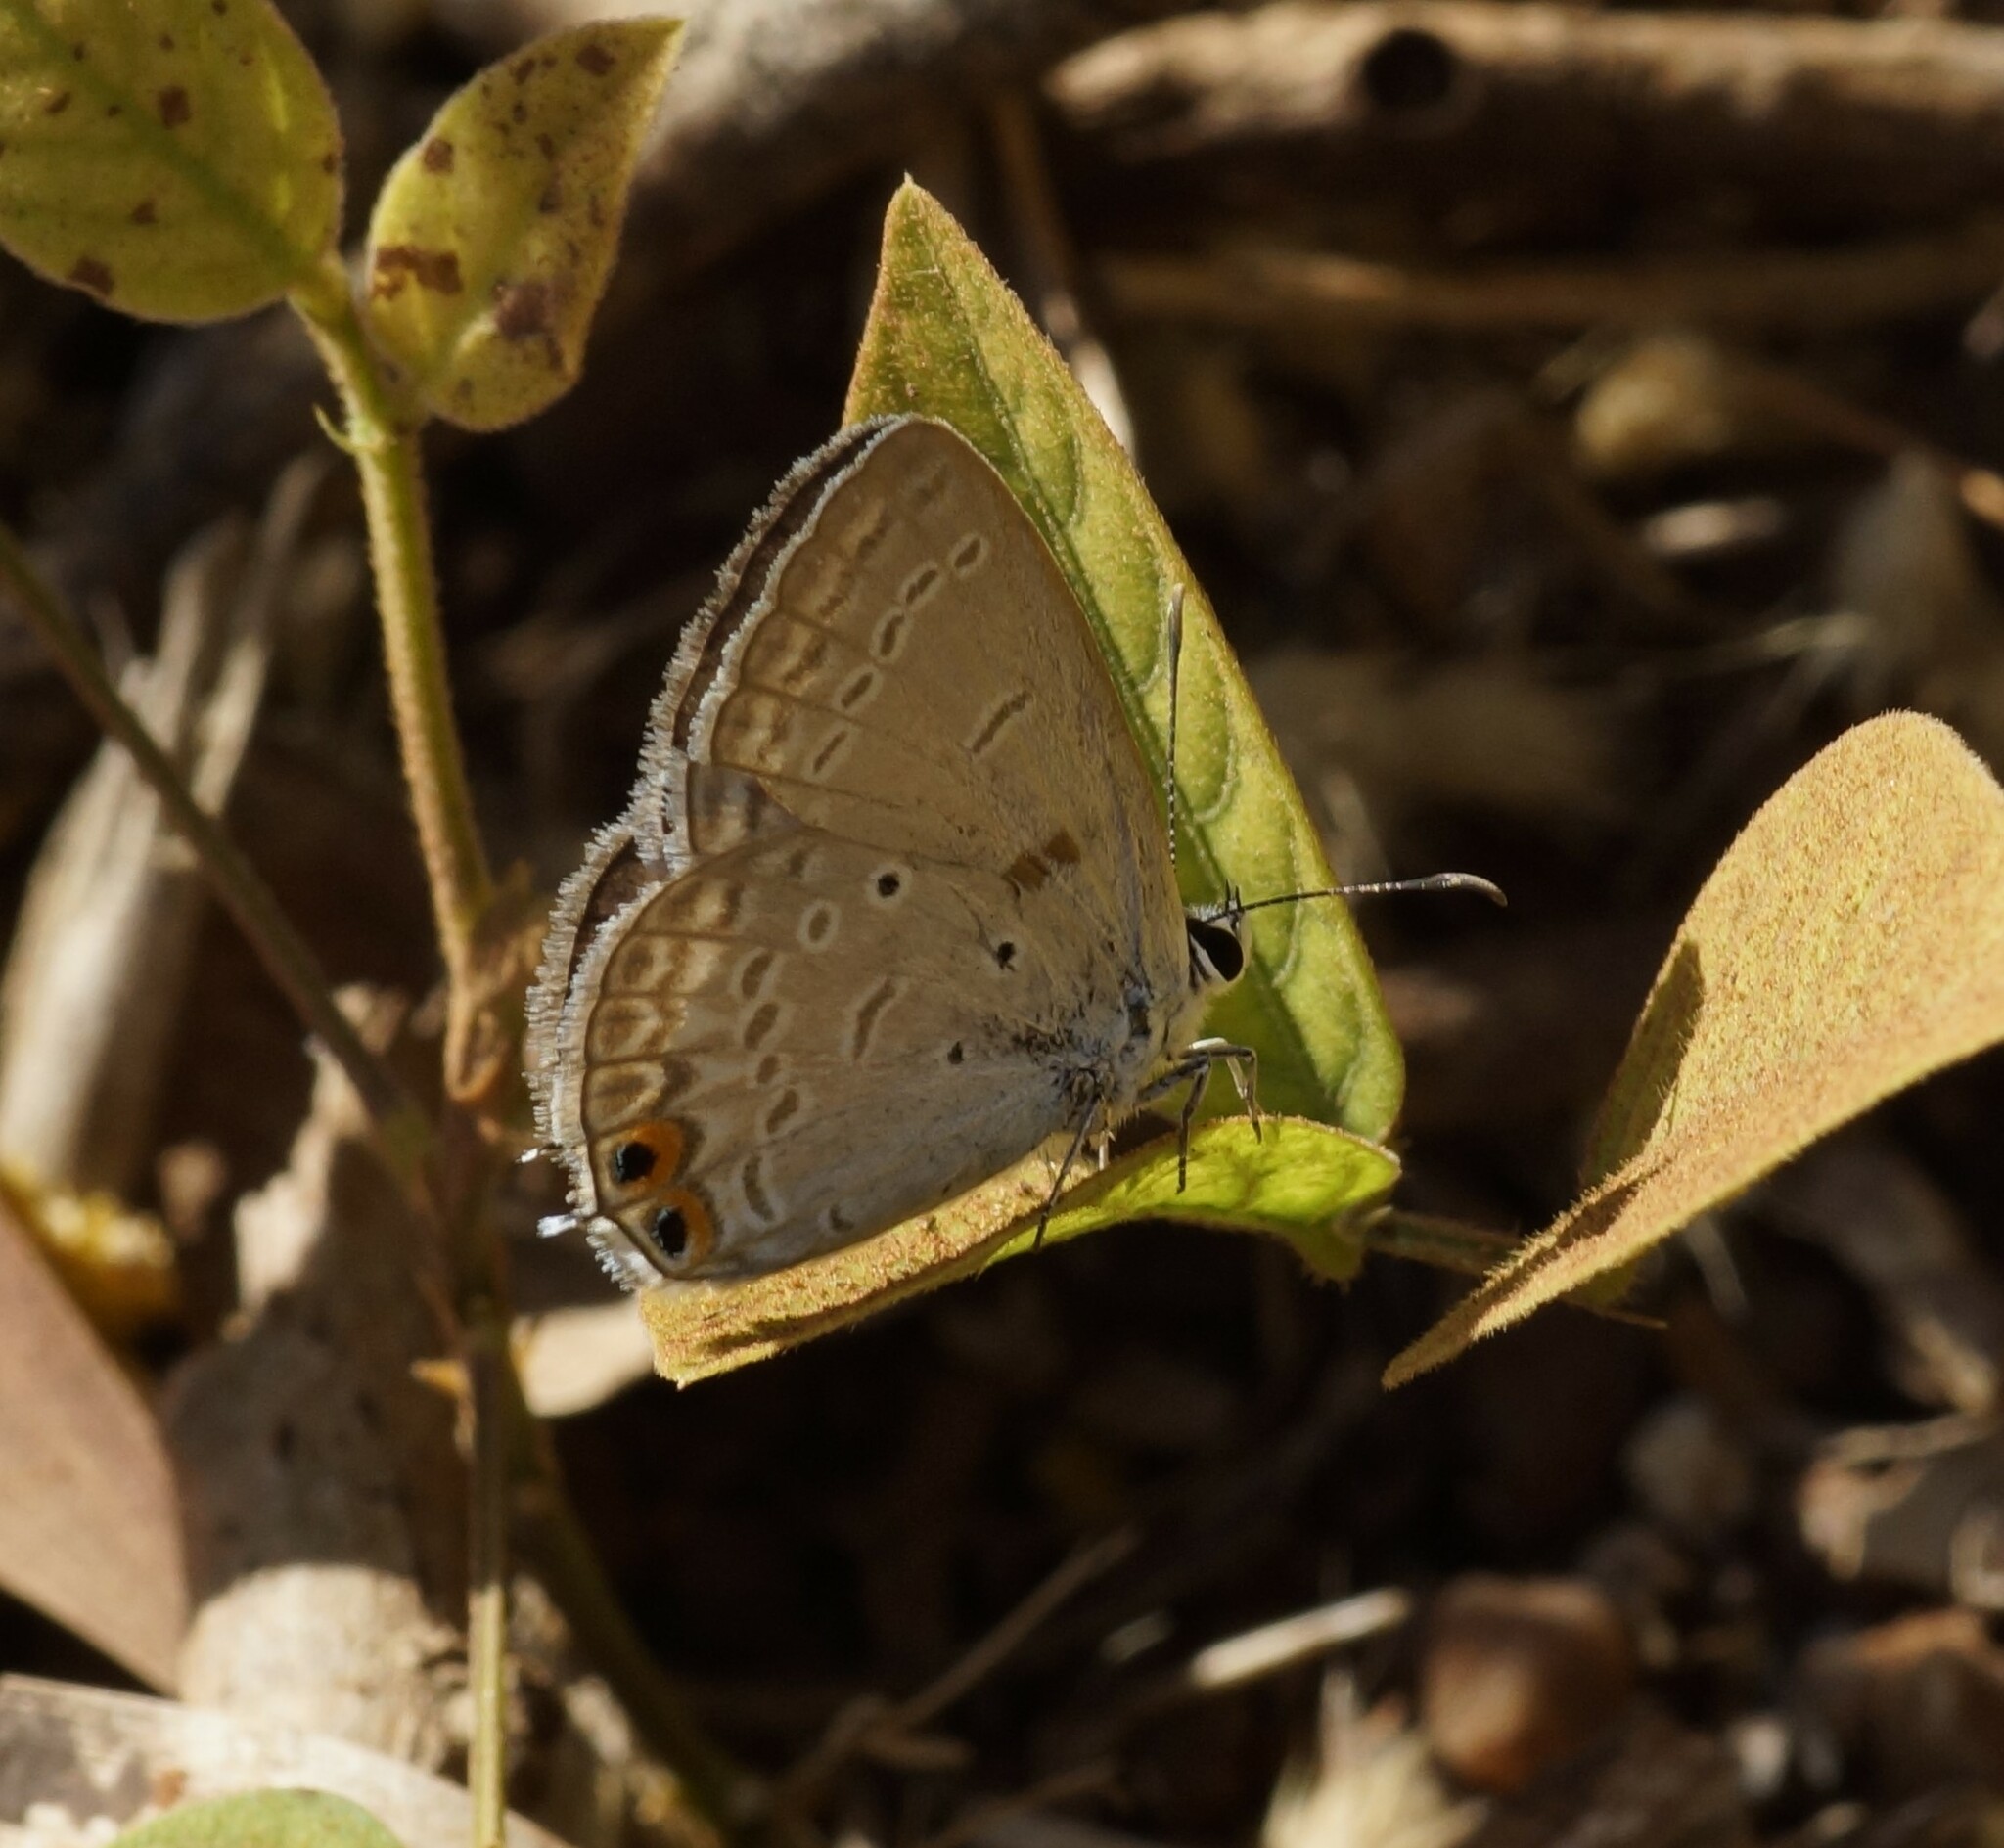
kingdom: Animalia
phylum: Arthropoda
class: Insecta
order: Lepidoptera
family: Lycaenidae
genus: Euchrysops
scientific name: Euchrysops cnejus
